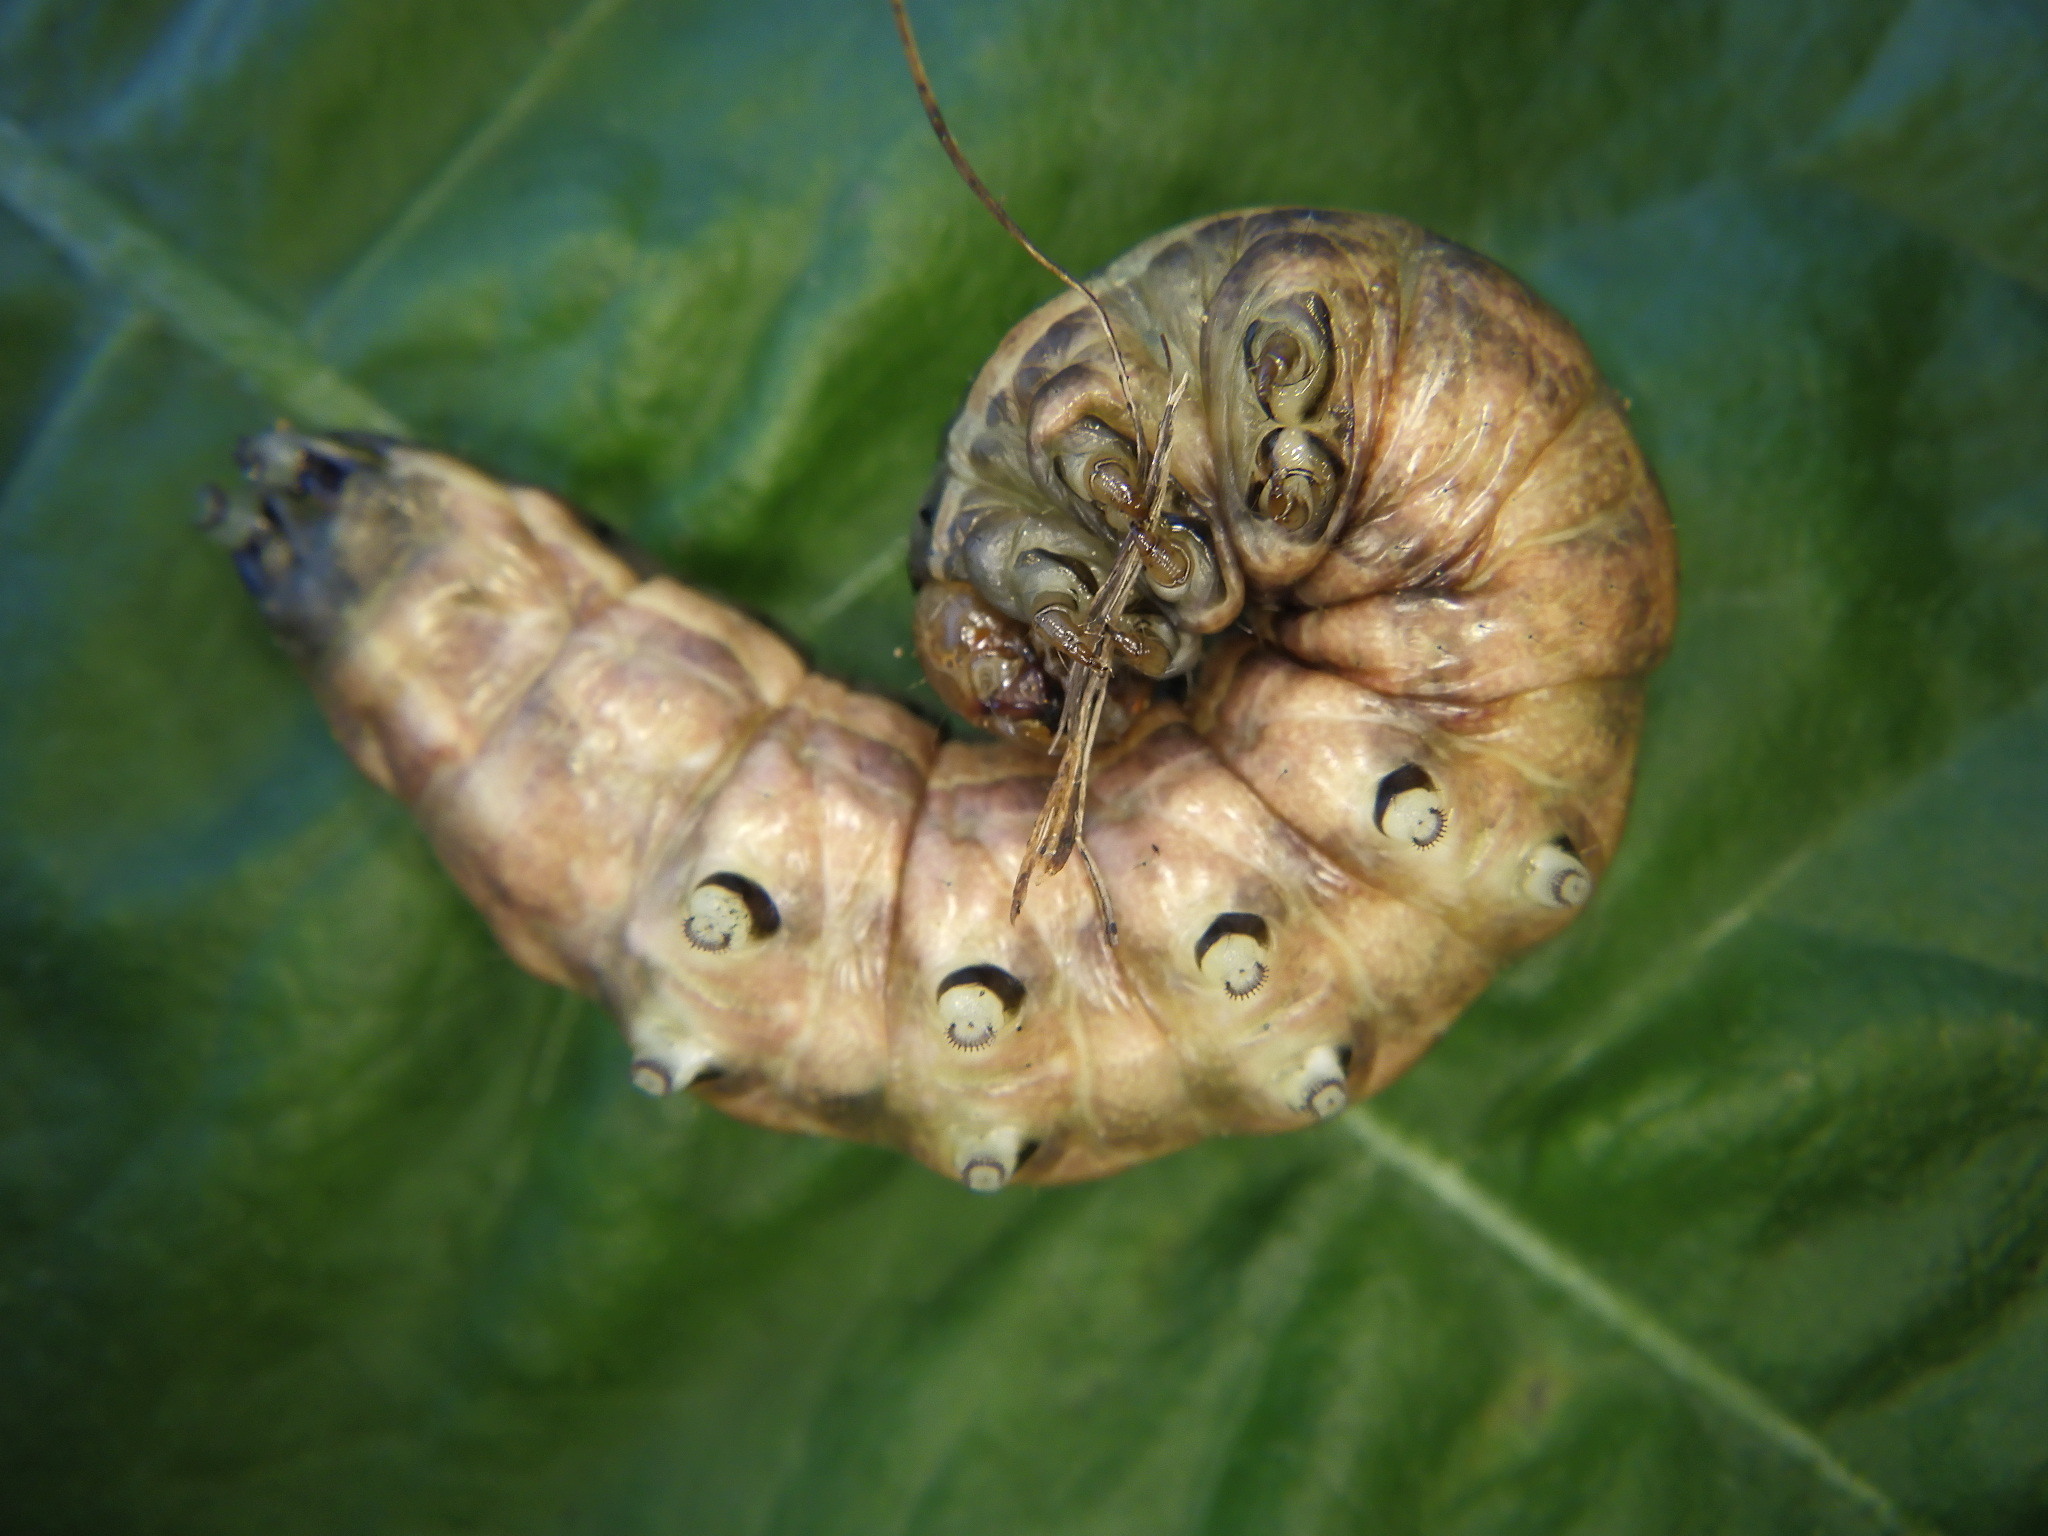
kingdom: Animalia
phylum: Arthropoda
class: Insecta
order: Lepidoptera
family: Noctuidae
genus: Nephelodes
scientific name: Nephelodes minians
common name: Bronzed cutworm
